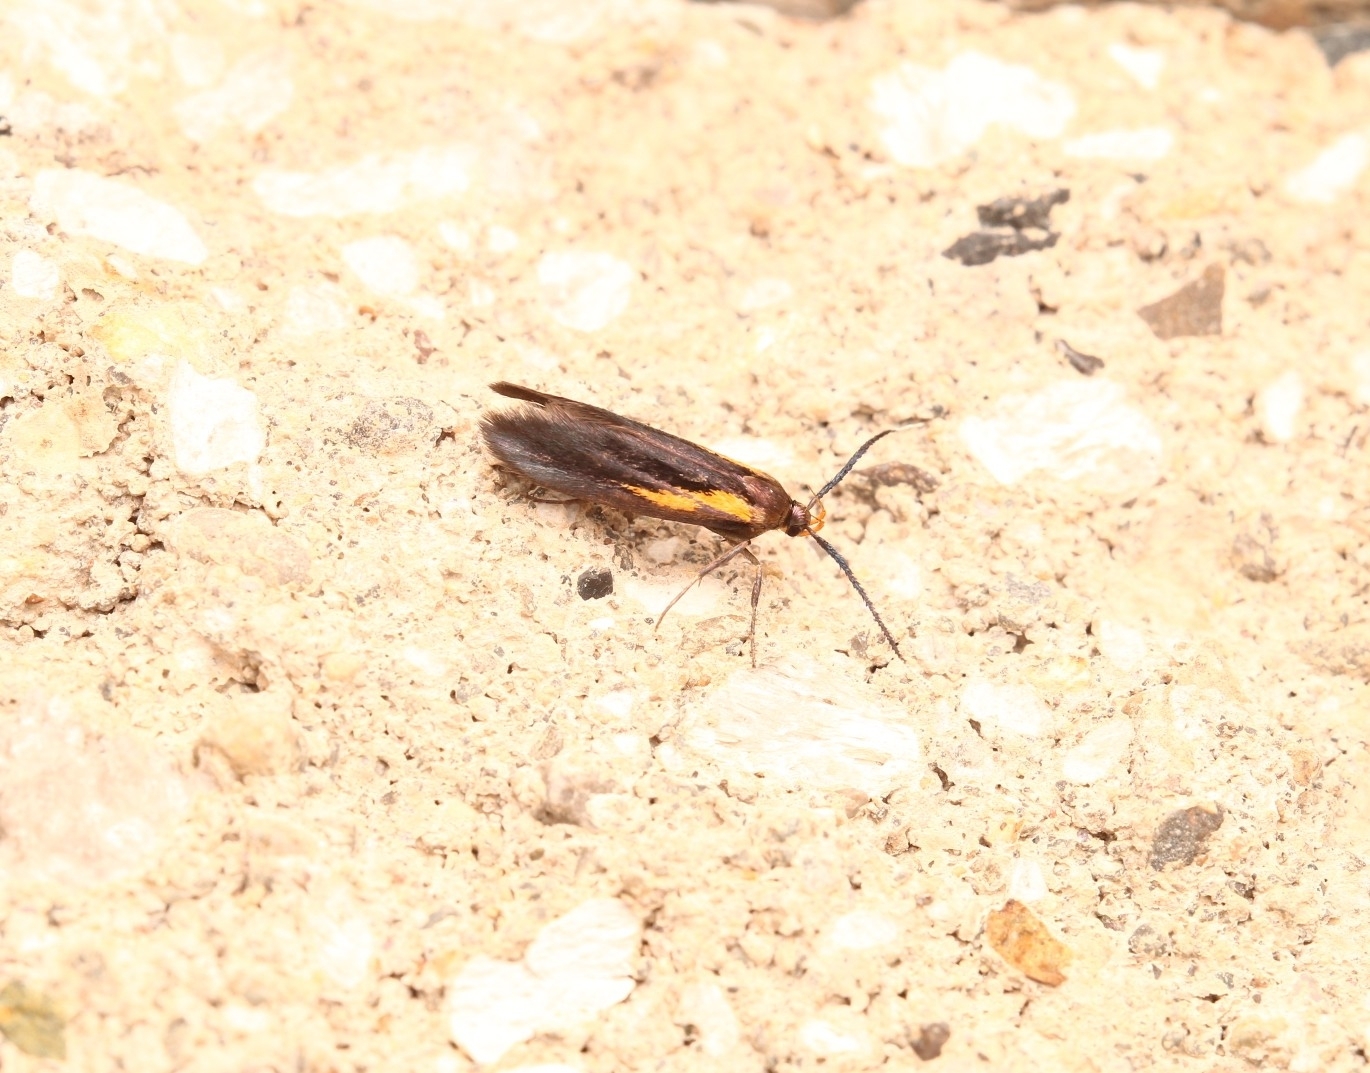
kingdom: Animalia
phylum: Arthropoda
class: Insecta
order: Lepidoptera
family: Oecophoridae
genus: Mathildana
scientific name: Mathildana newmanella
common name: Newman's mathildana moth
